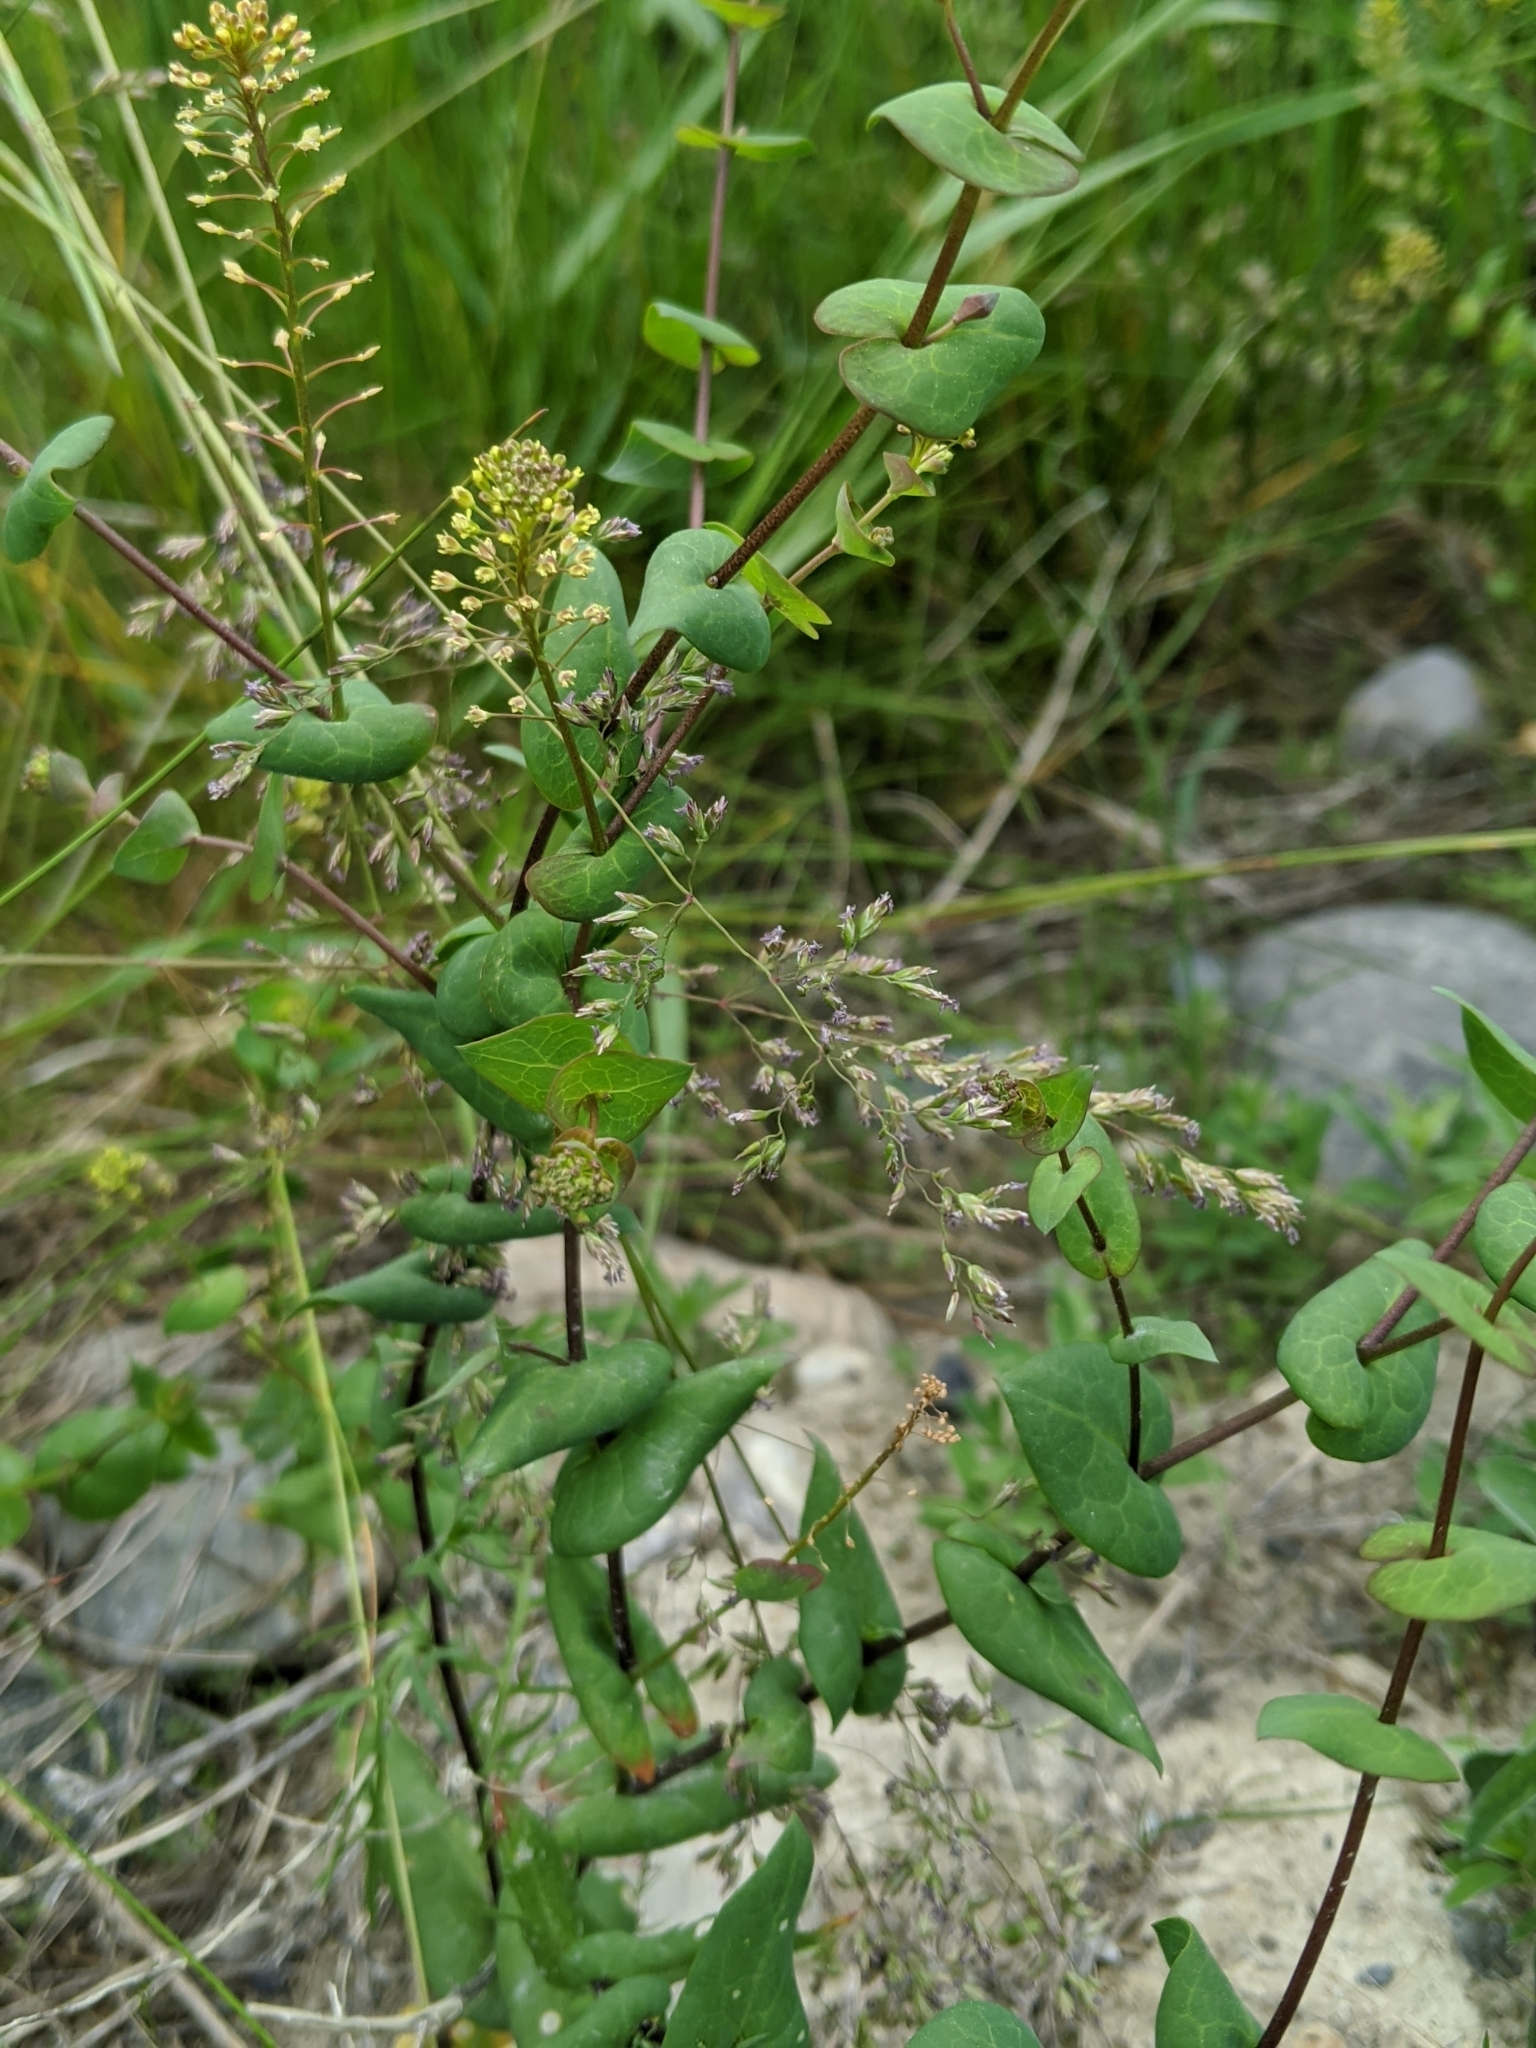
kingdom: Plantae
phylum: Tracheophyta
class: Magnoliopsida
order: Brassicales
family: Brassicaceae
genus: Lepidium
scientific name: Lepidium perfoliatum
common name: Perfoliate pepperwort
